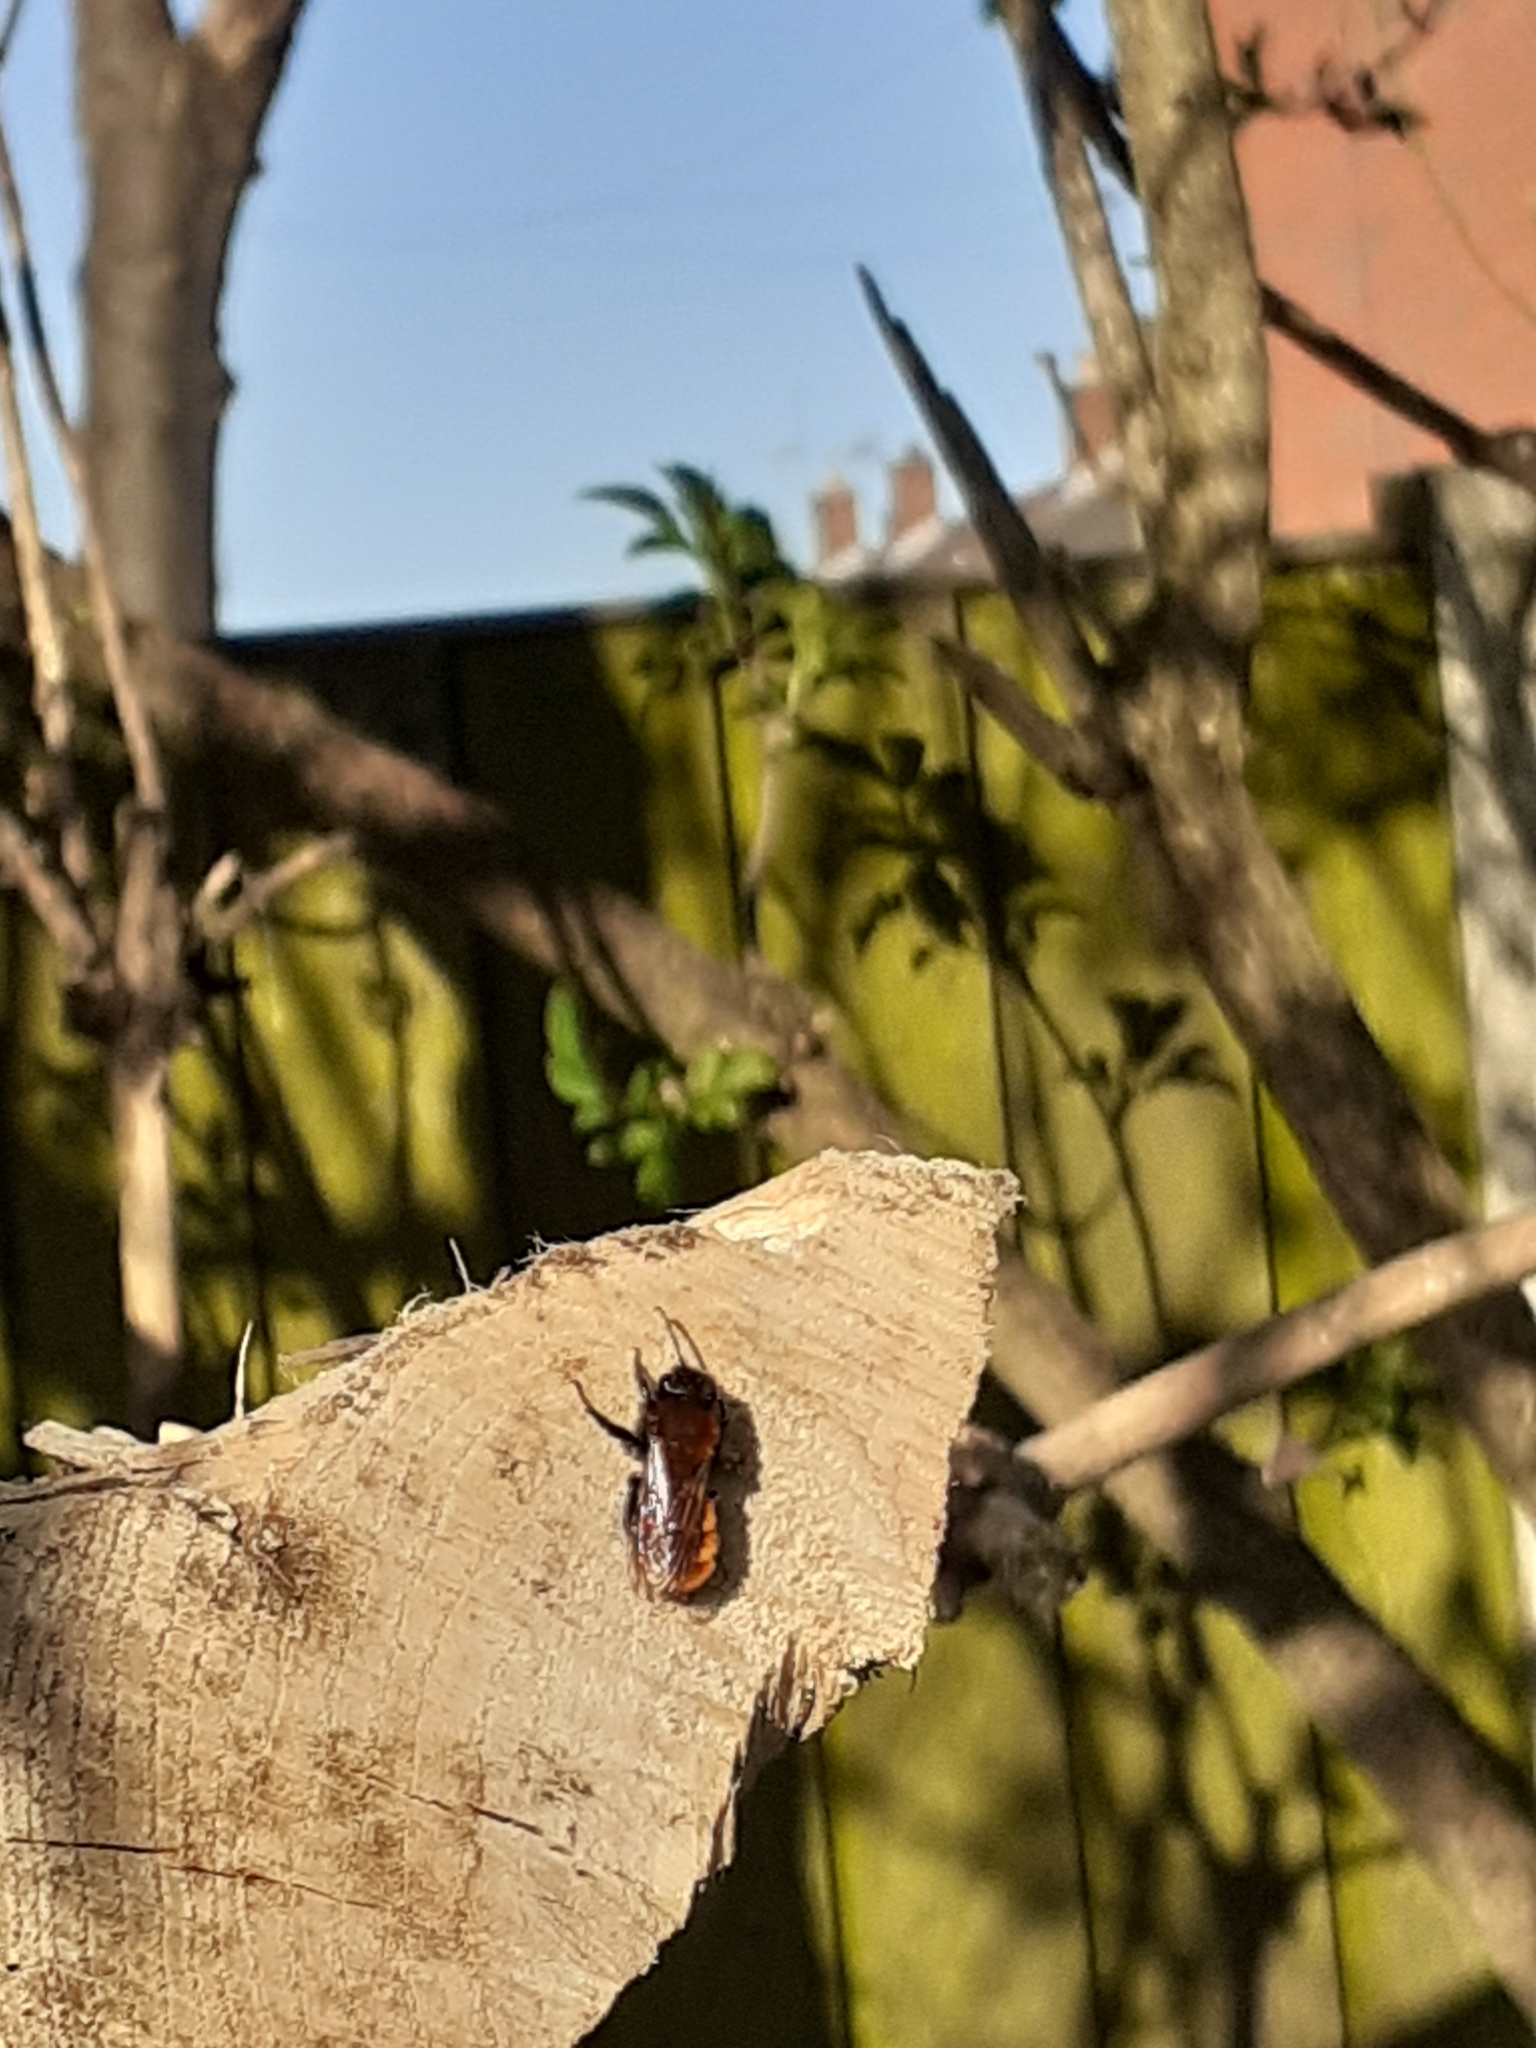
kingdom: Animalia
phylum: Arthropoda
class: Insecta
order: Hymenoptera
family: Andrenidae
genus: Andrena
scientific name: Andrena fulva
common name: Tawny mining bee
